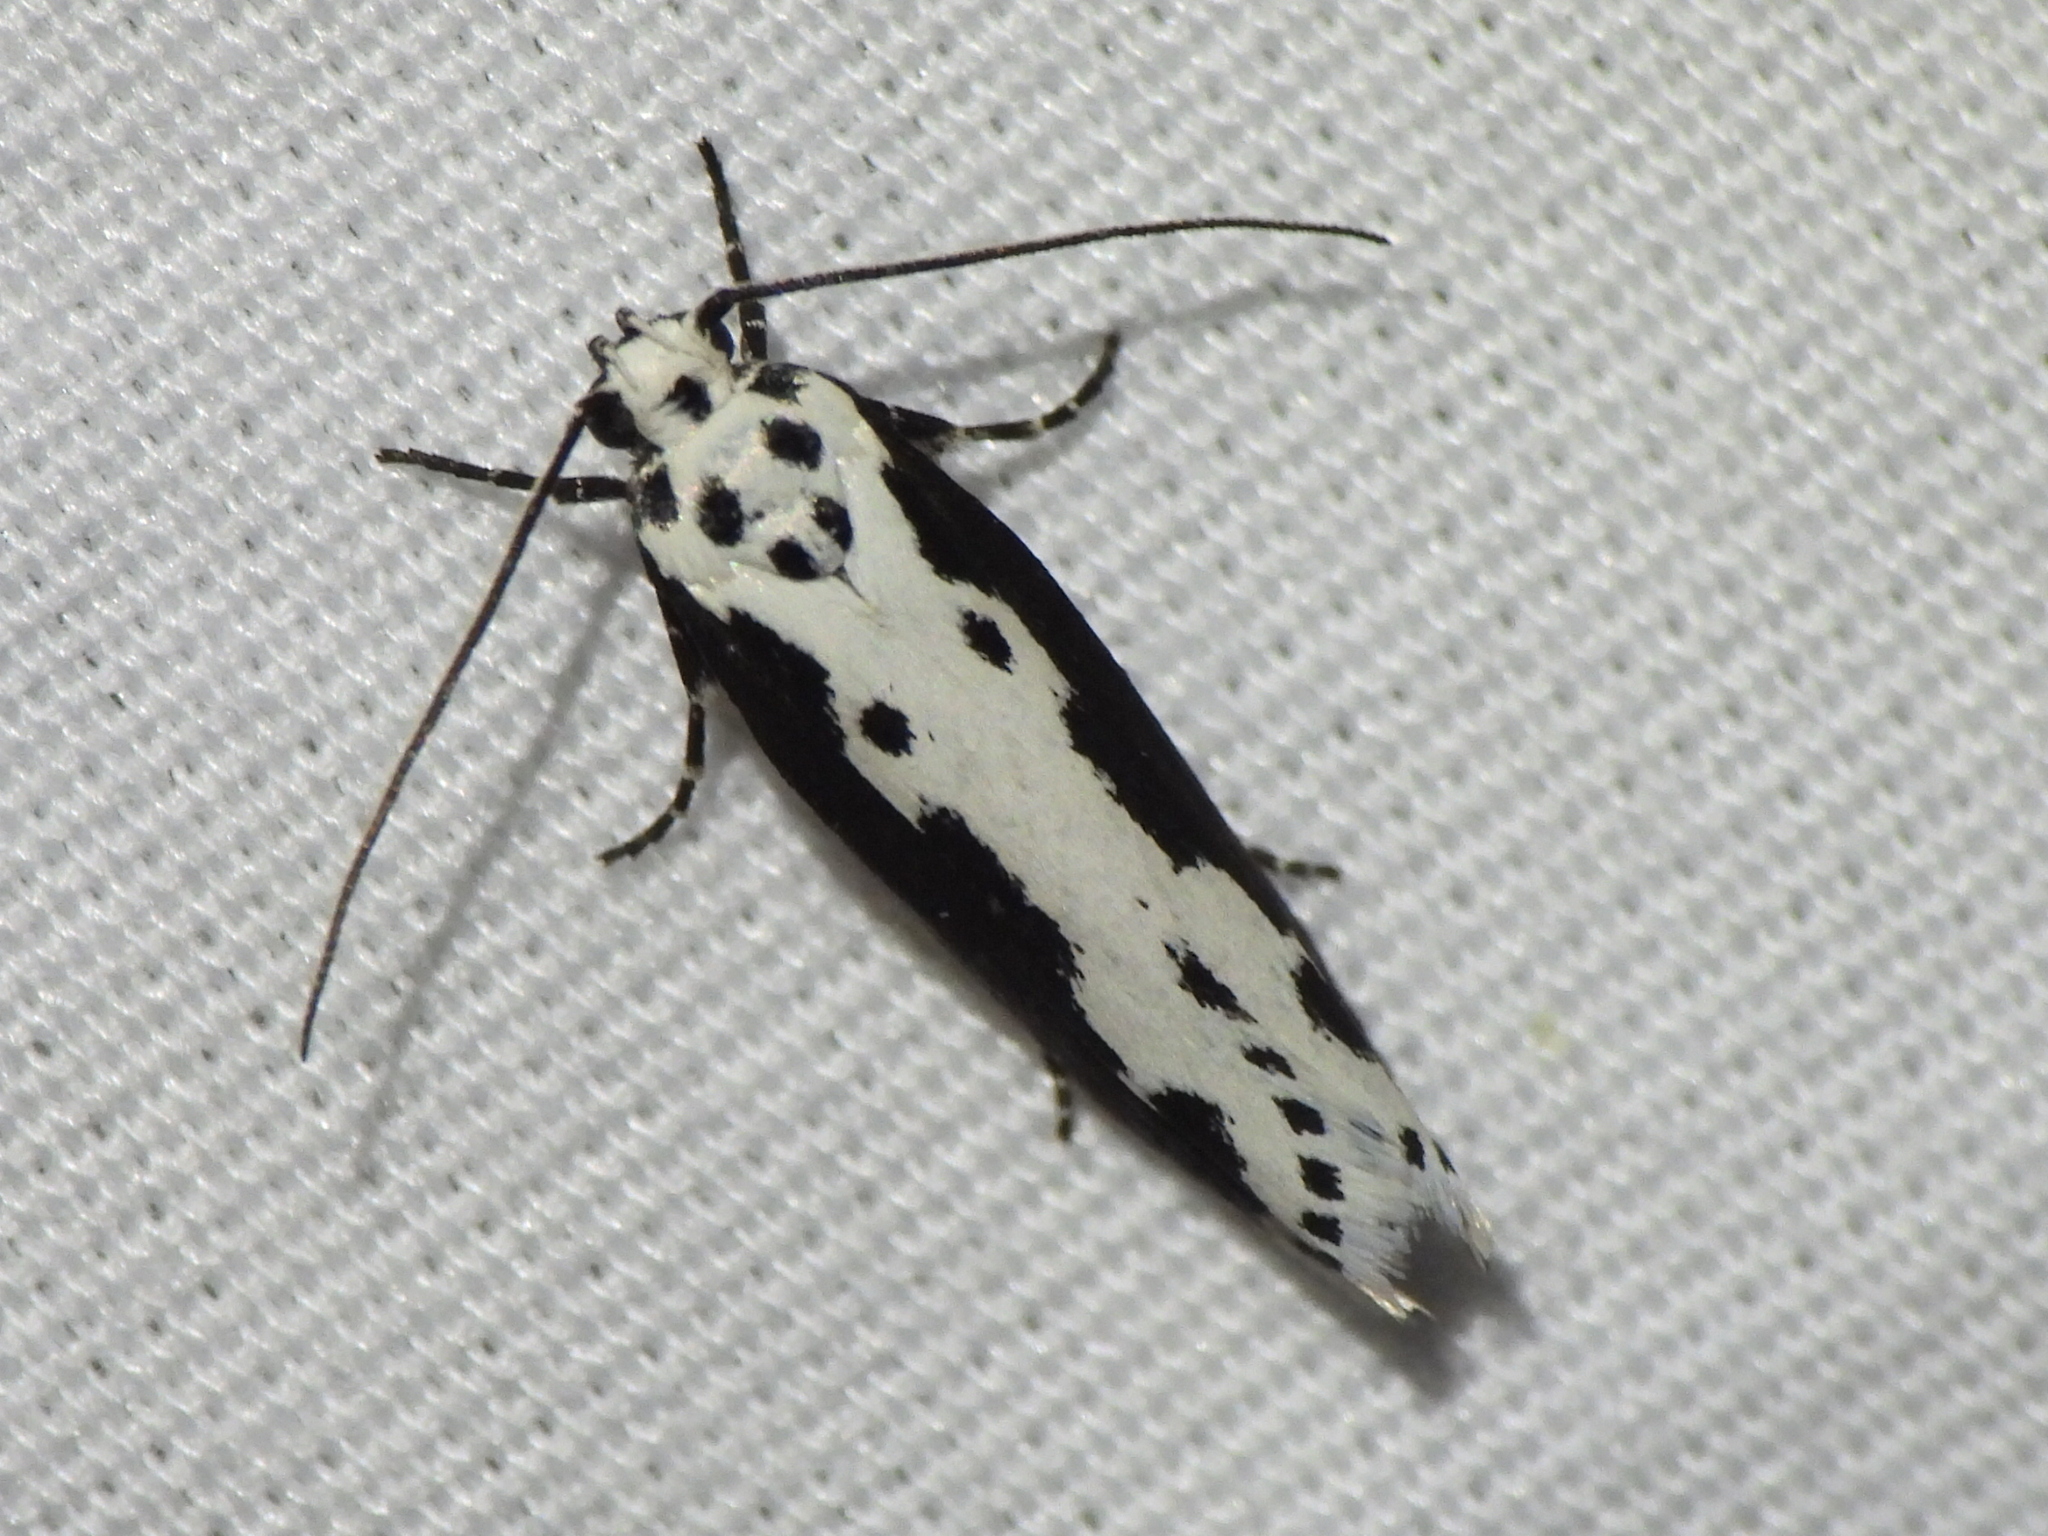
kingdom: Animalia
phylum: Arthropoda
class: Insecta
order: Lepidoptera
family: Ethmiidae
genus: Ethmia
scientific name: Ethmia semilugens
